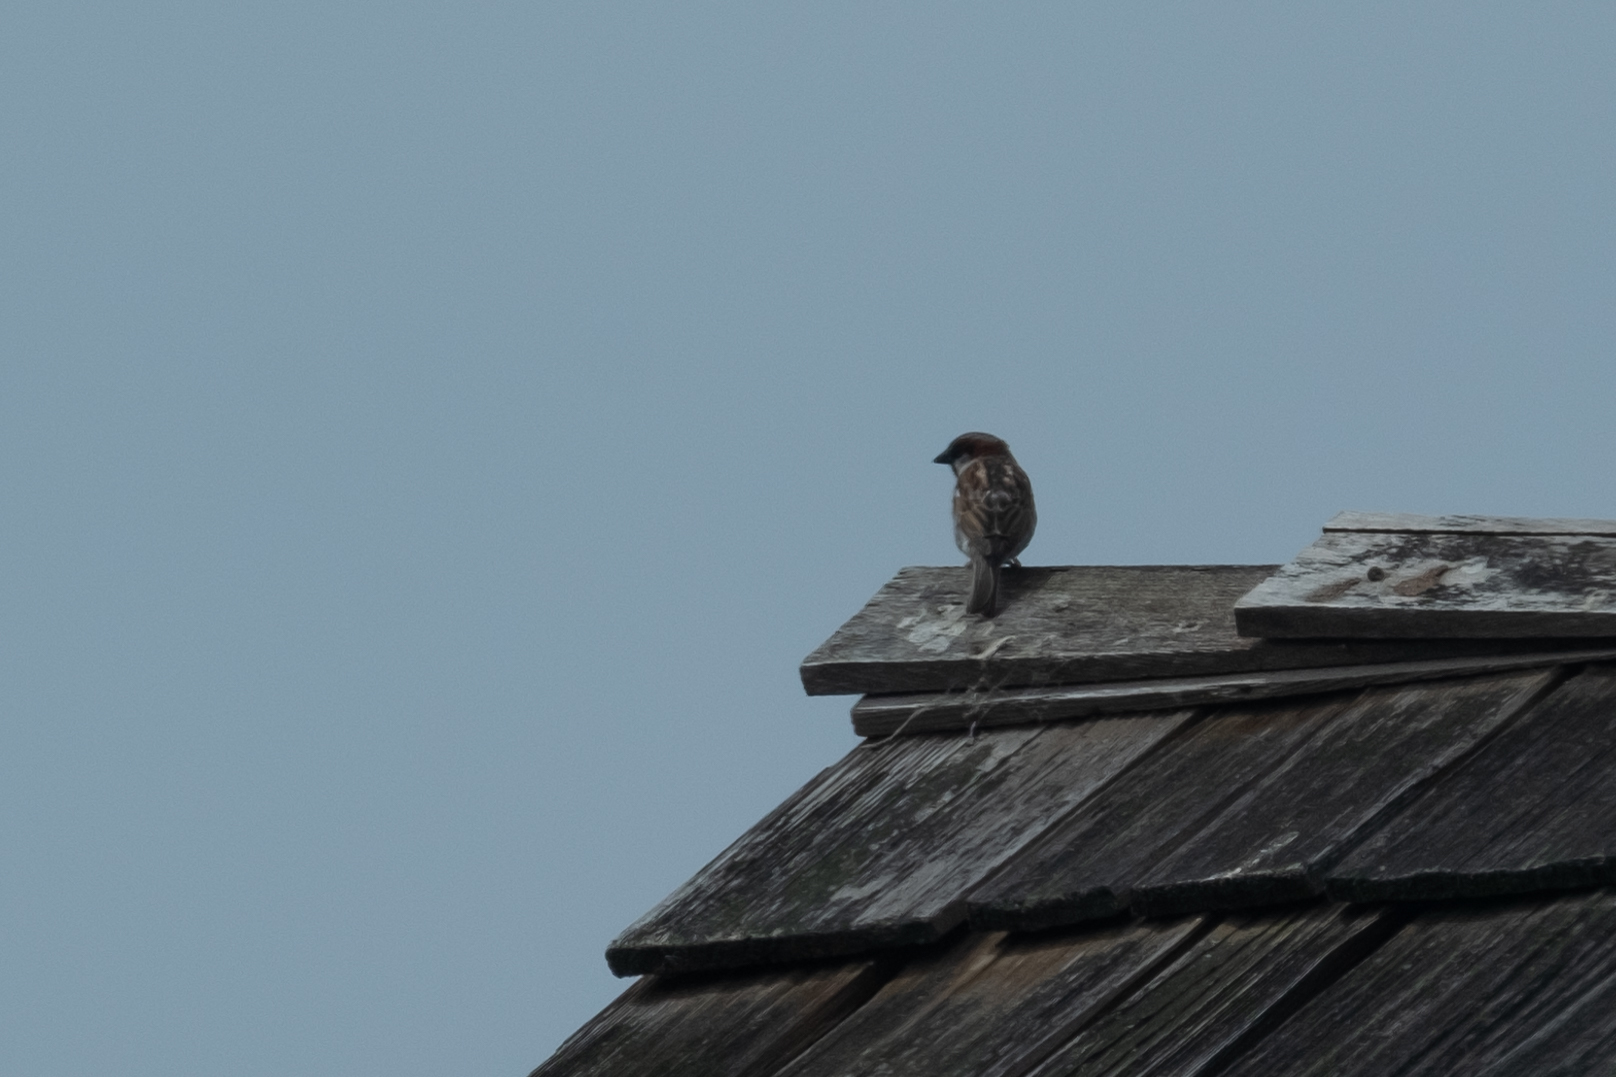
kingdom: Animalia
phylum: Chordata
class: Aves
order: Passeriformes
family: Passeridae
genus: Passer
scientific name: Passer domesticus
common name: House sparrow
